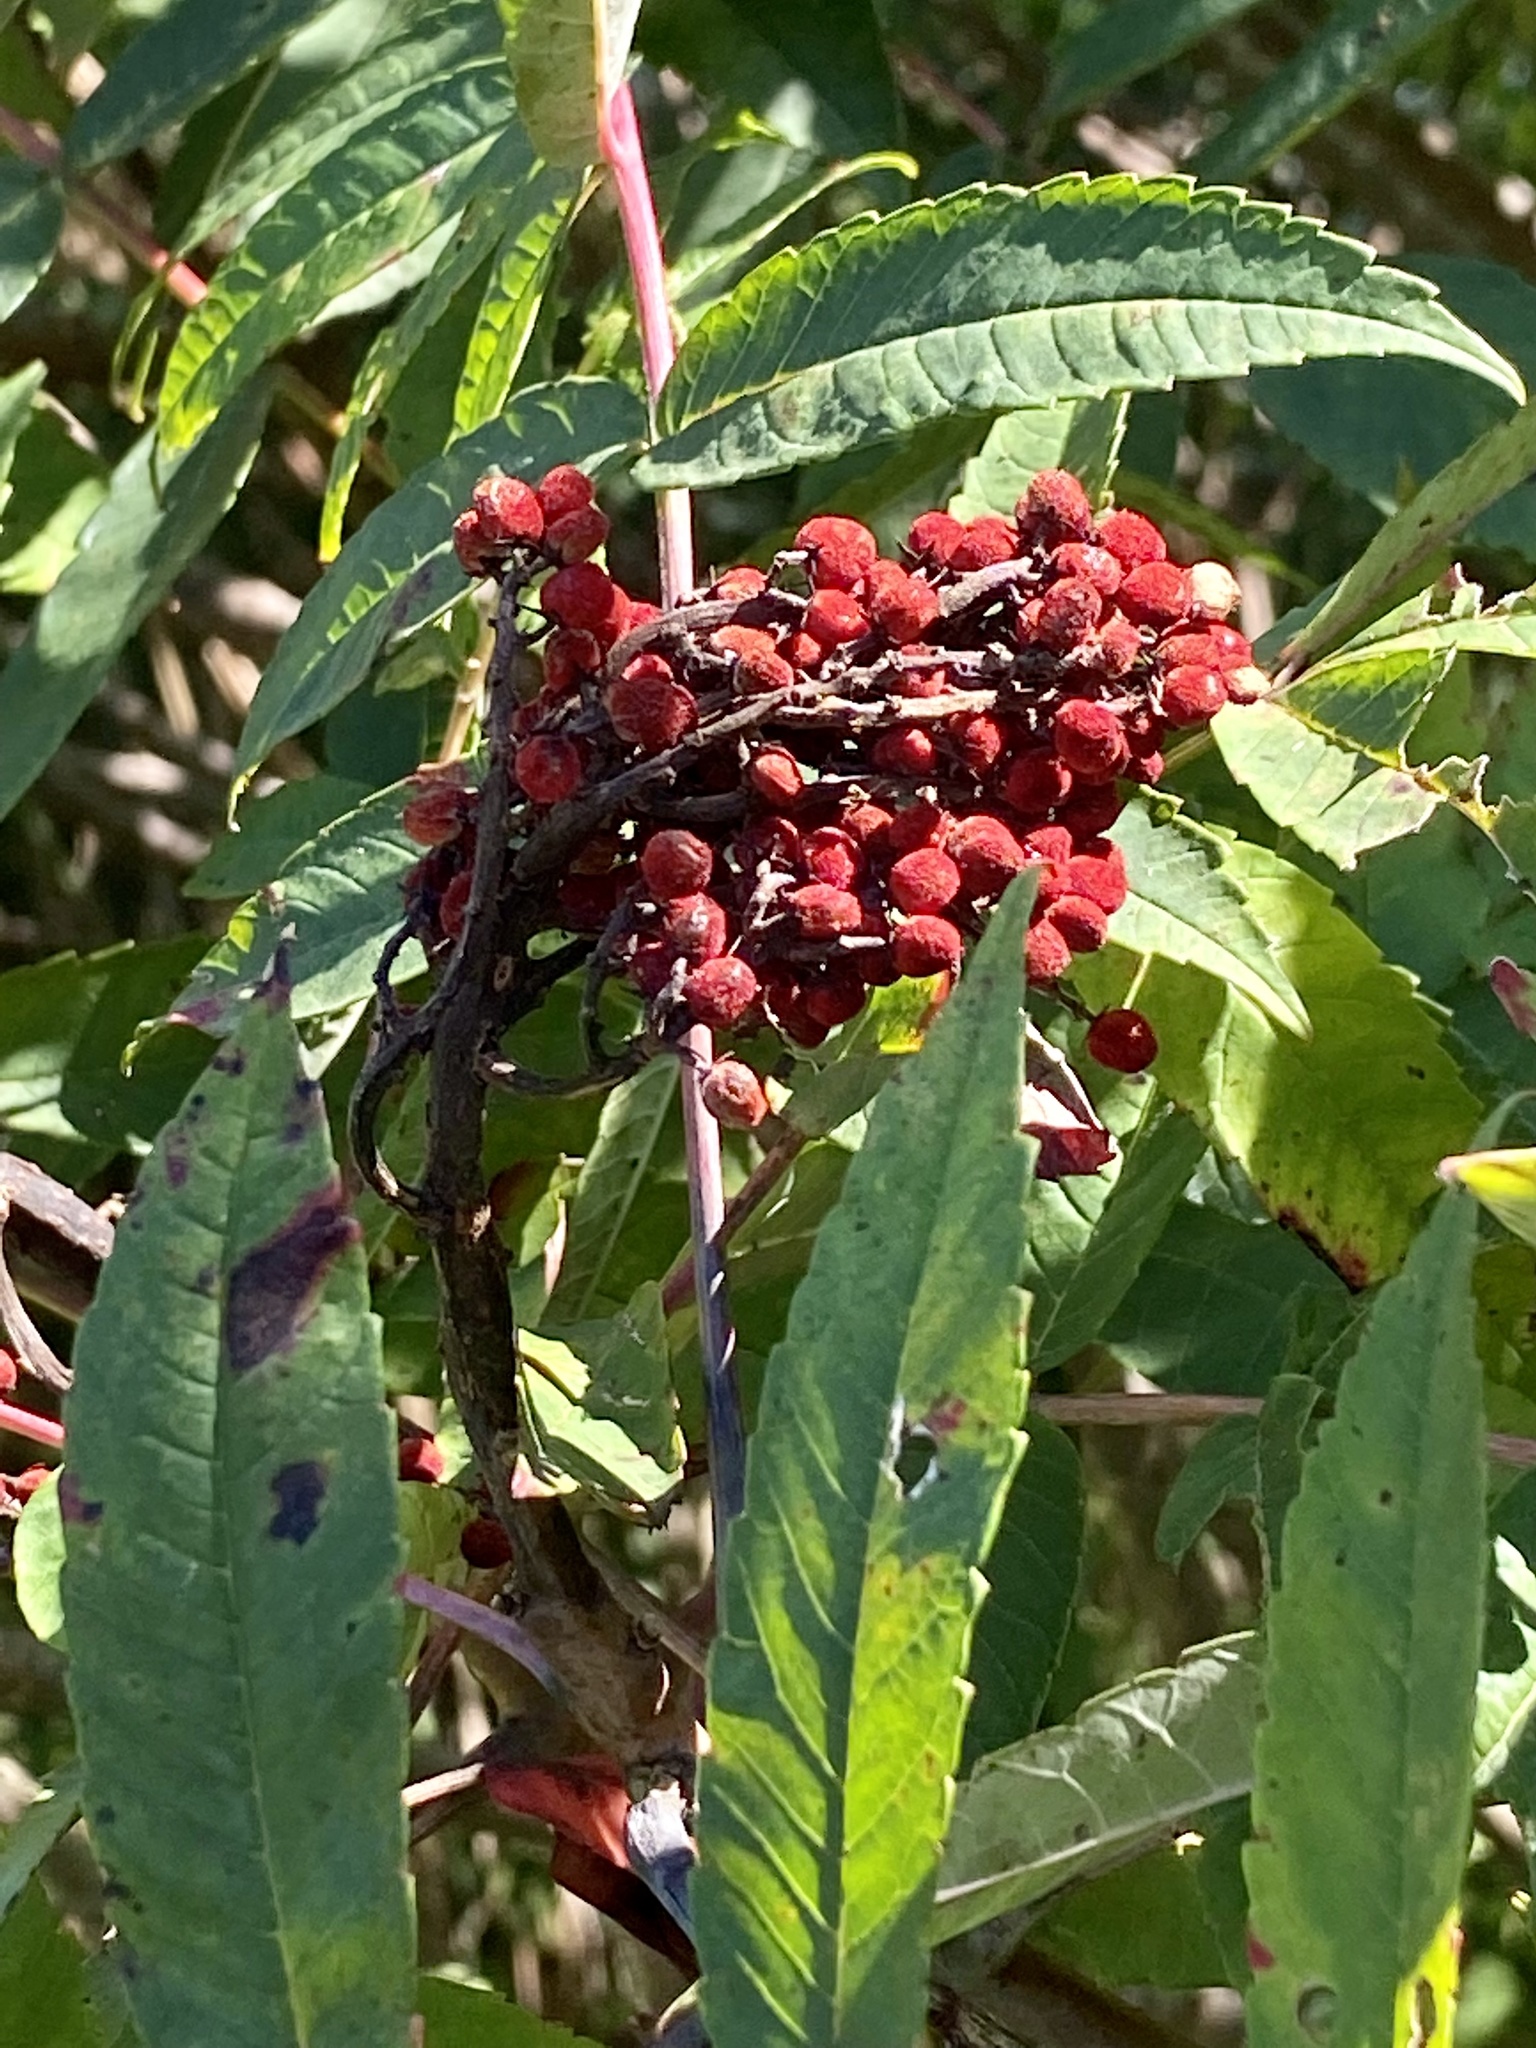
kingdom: Plantae
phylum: Tracheophyta
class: Magnoliopsida
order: Sapindales
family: Anacardiaceae
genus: Rhus
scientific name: Rhus glabra
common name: Scarlet sumac
